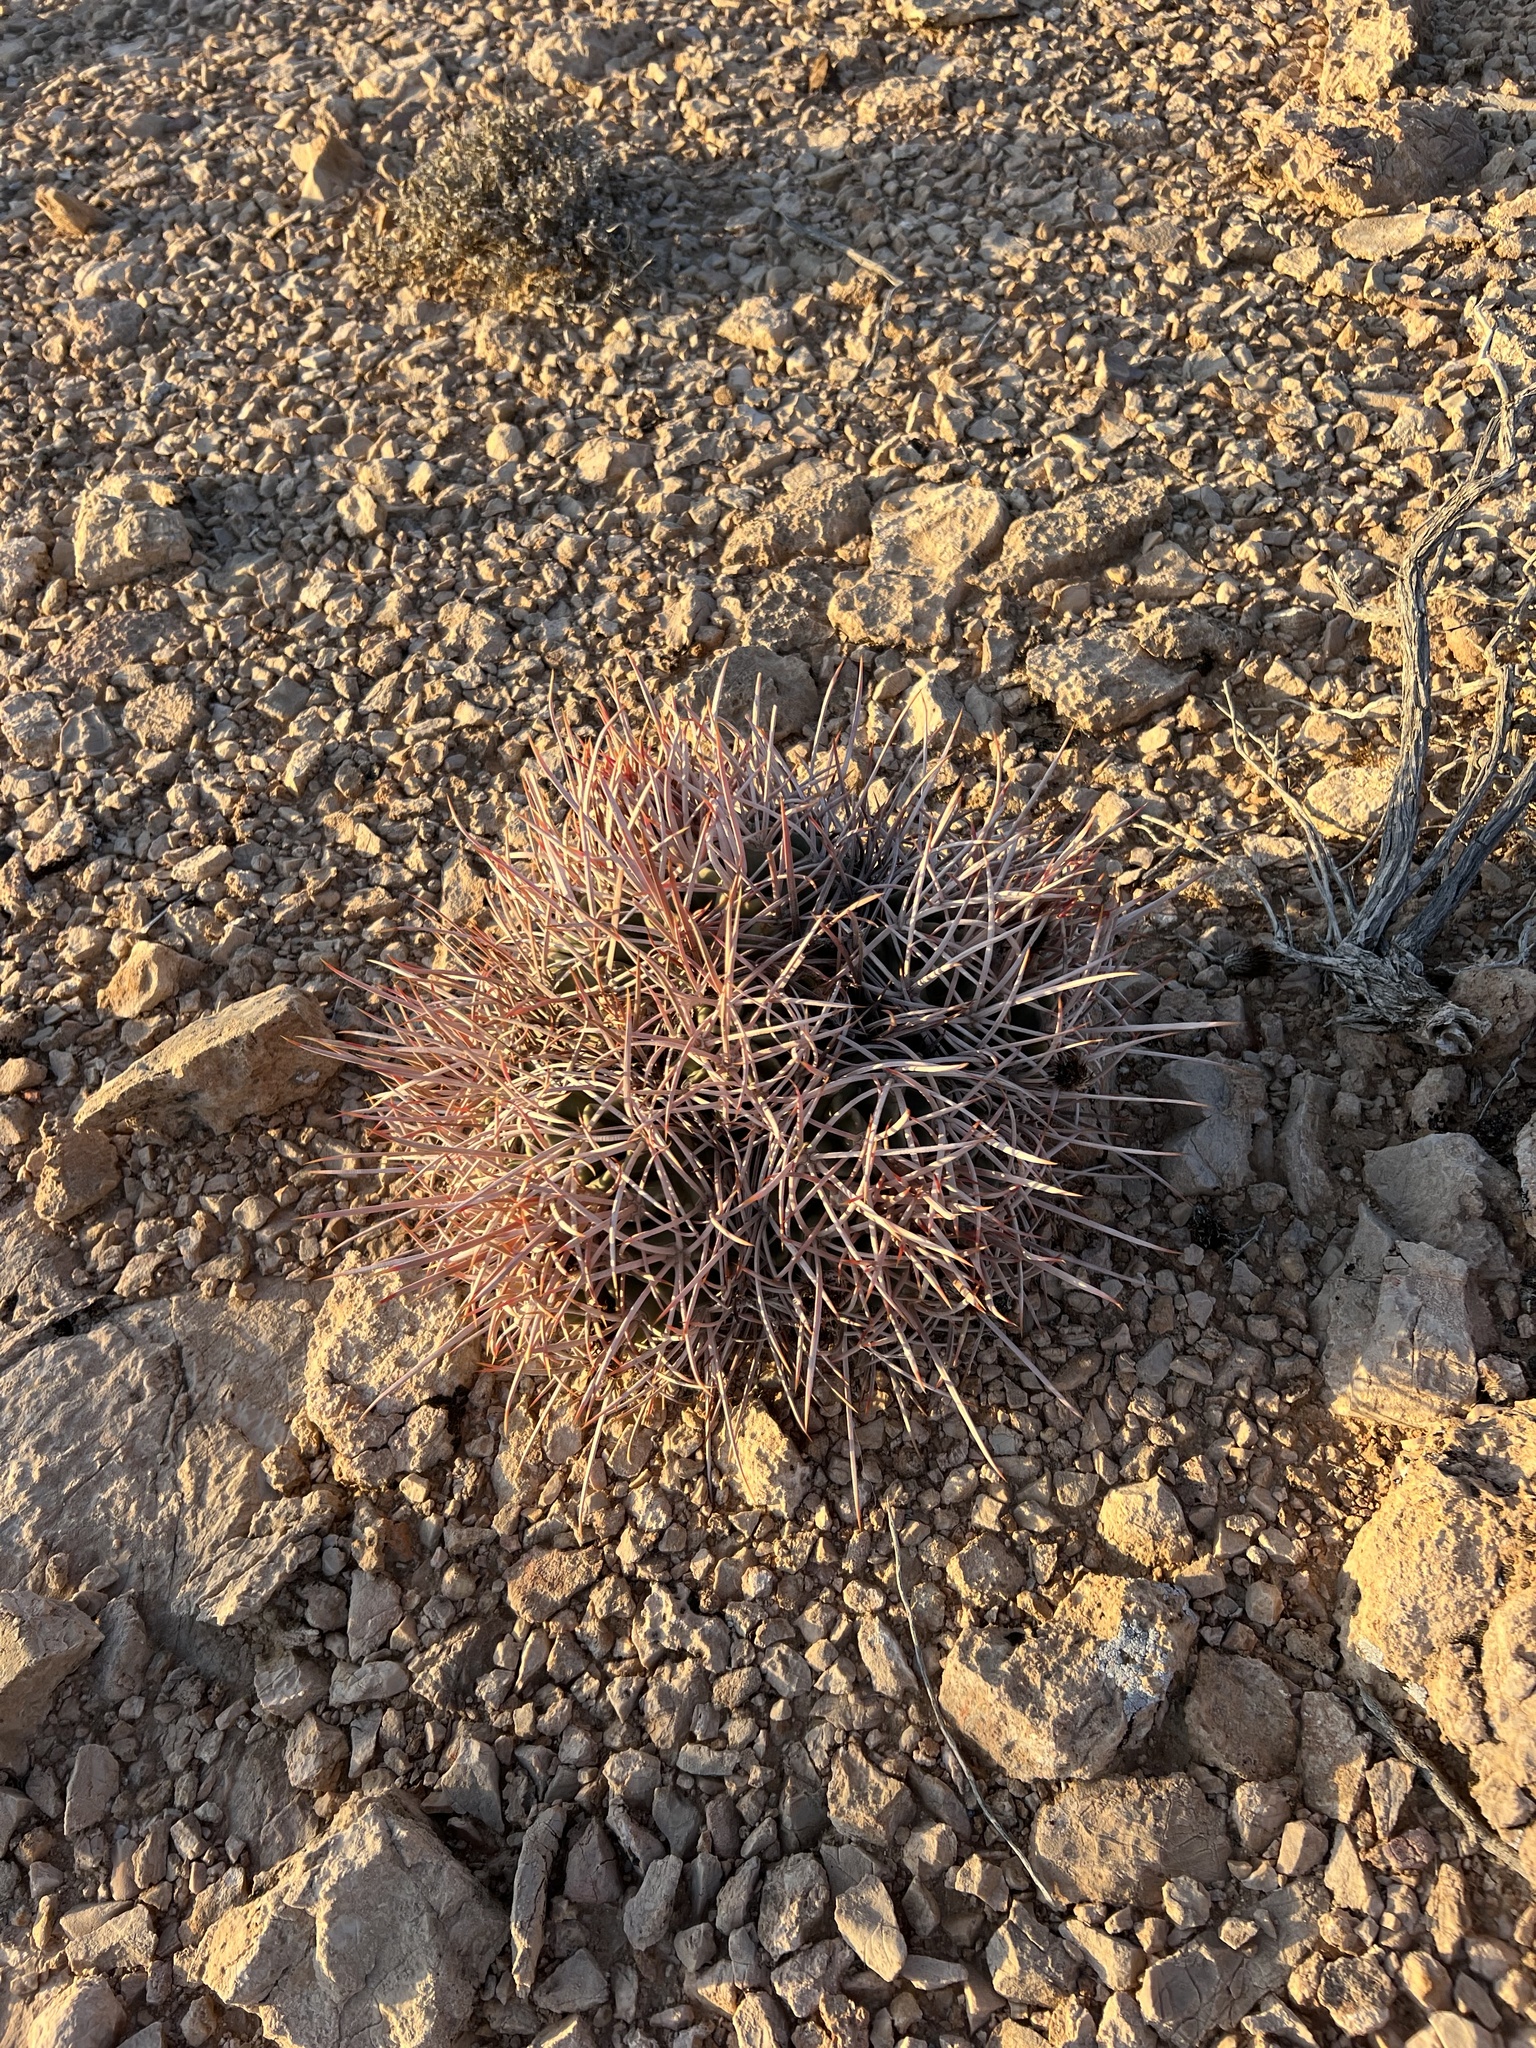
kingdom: Plantae
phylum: Tracheophyta
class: Magnoliopsida
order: Caryophyllales
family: Cactaceae
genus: Echinocactus
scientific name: Echinocactus polycephalus
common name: Cottontop cactus
